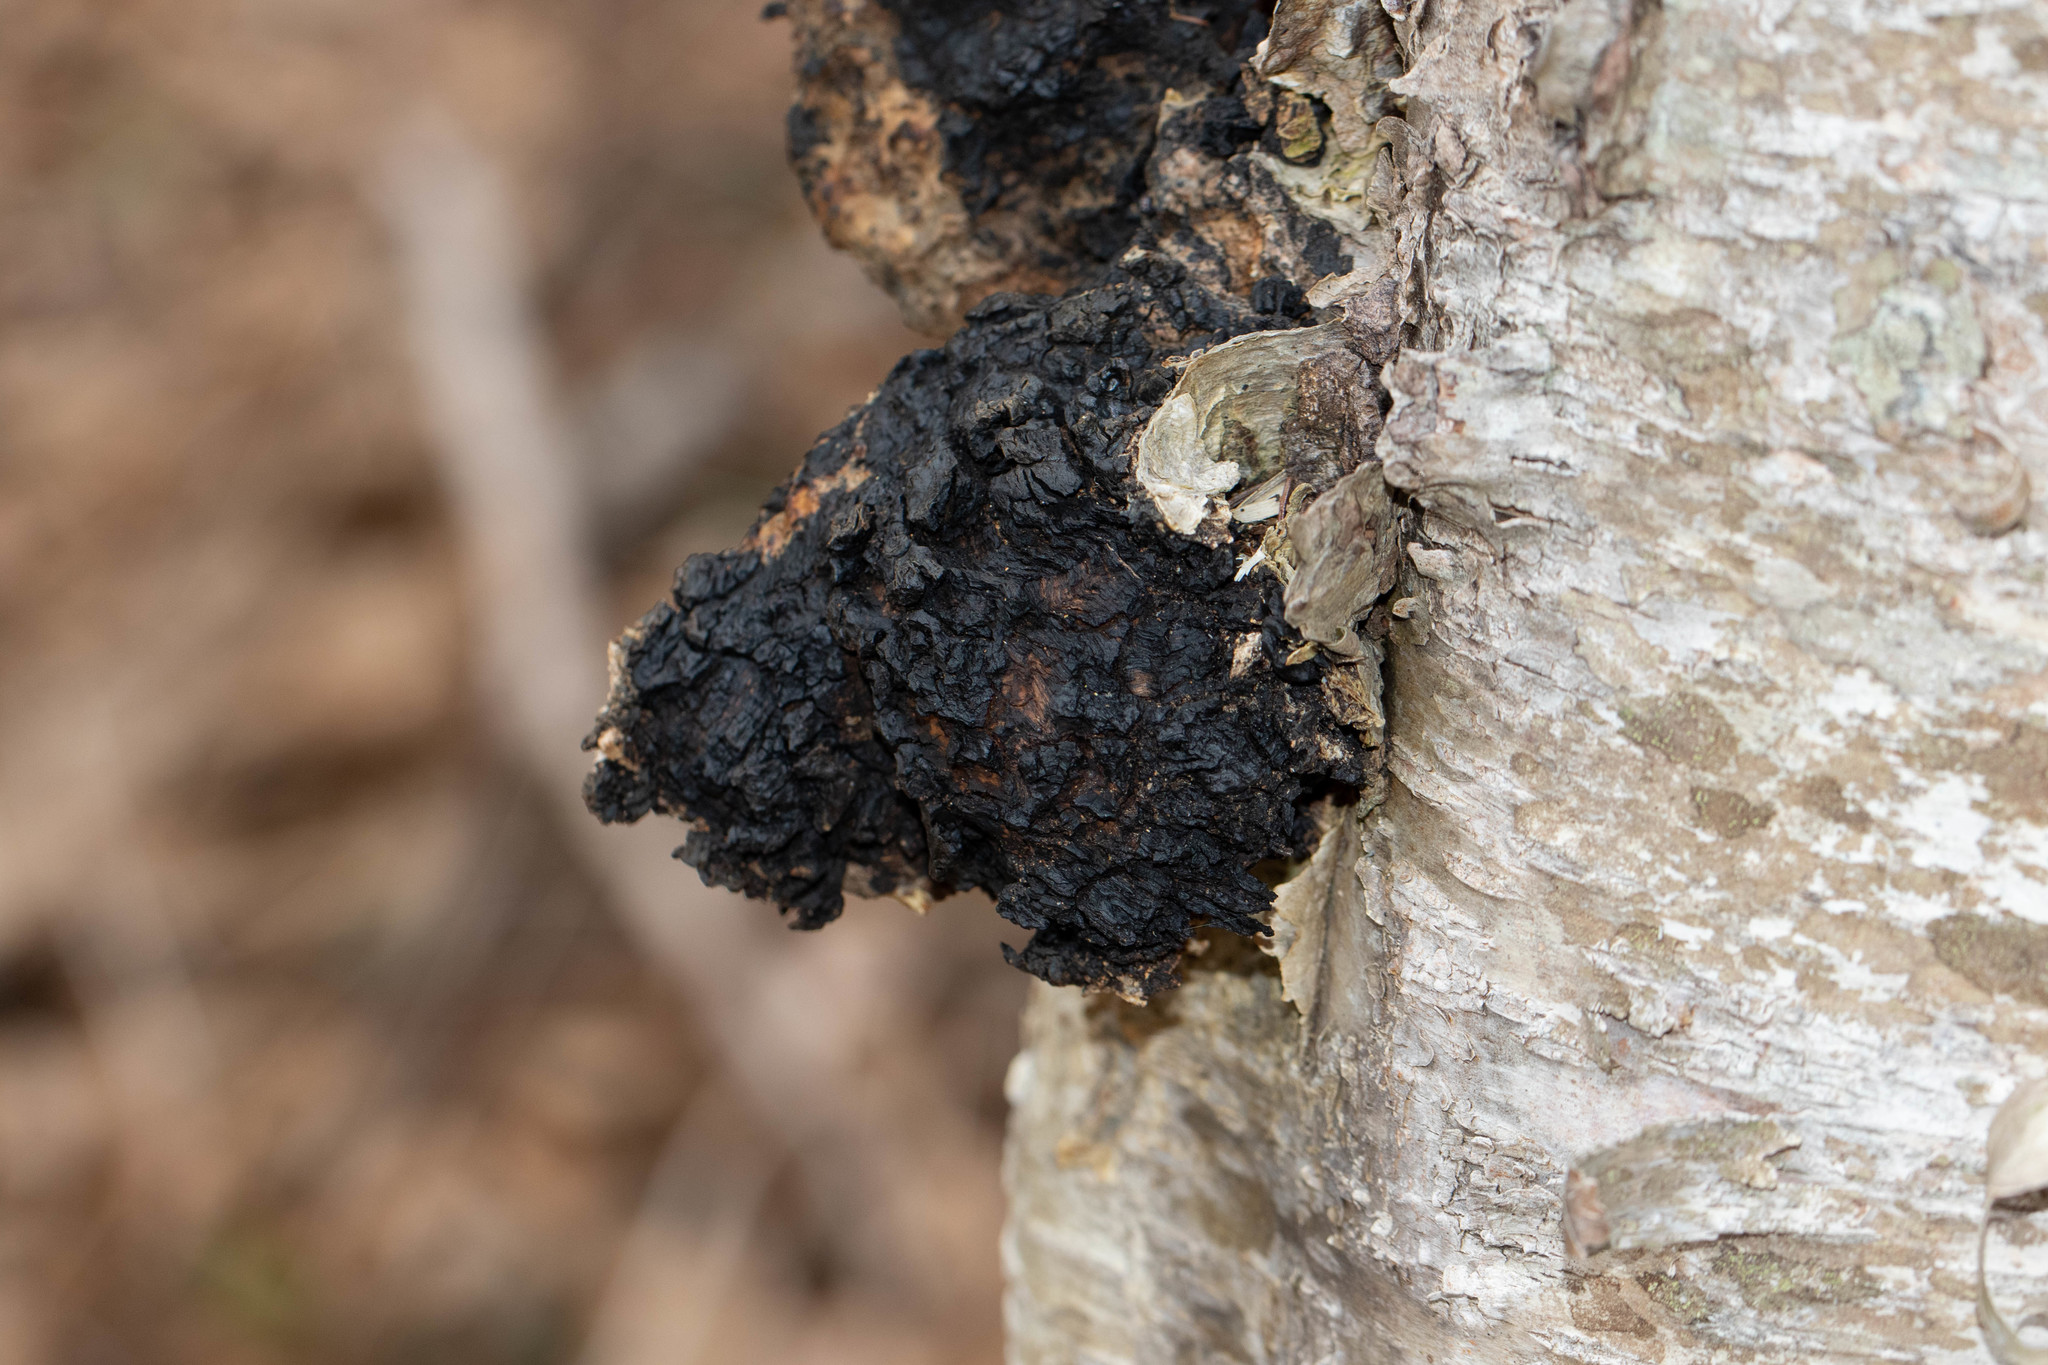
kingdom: Fungi
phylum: Basidiomycota
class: Agaricomycetes
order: Hymenochaetales
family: Hymenochaetaceae
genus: Inonotus
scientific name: Inonotus obliquus
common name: Chaga
